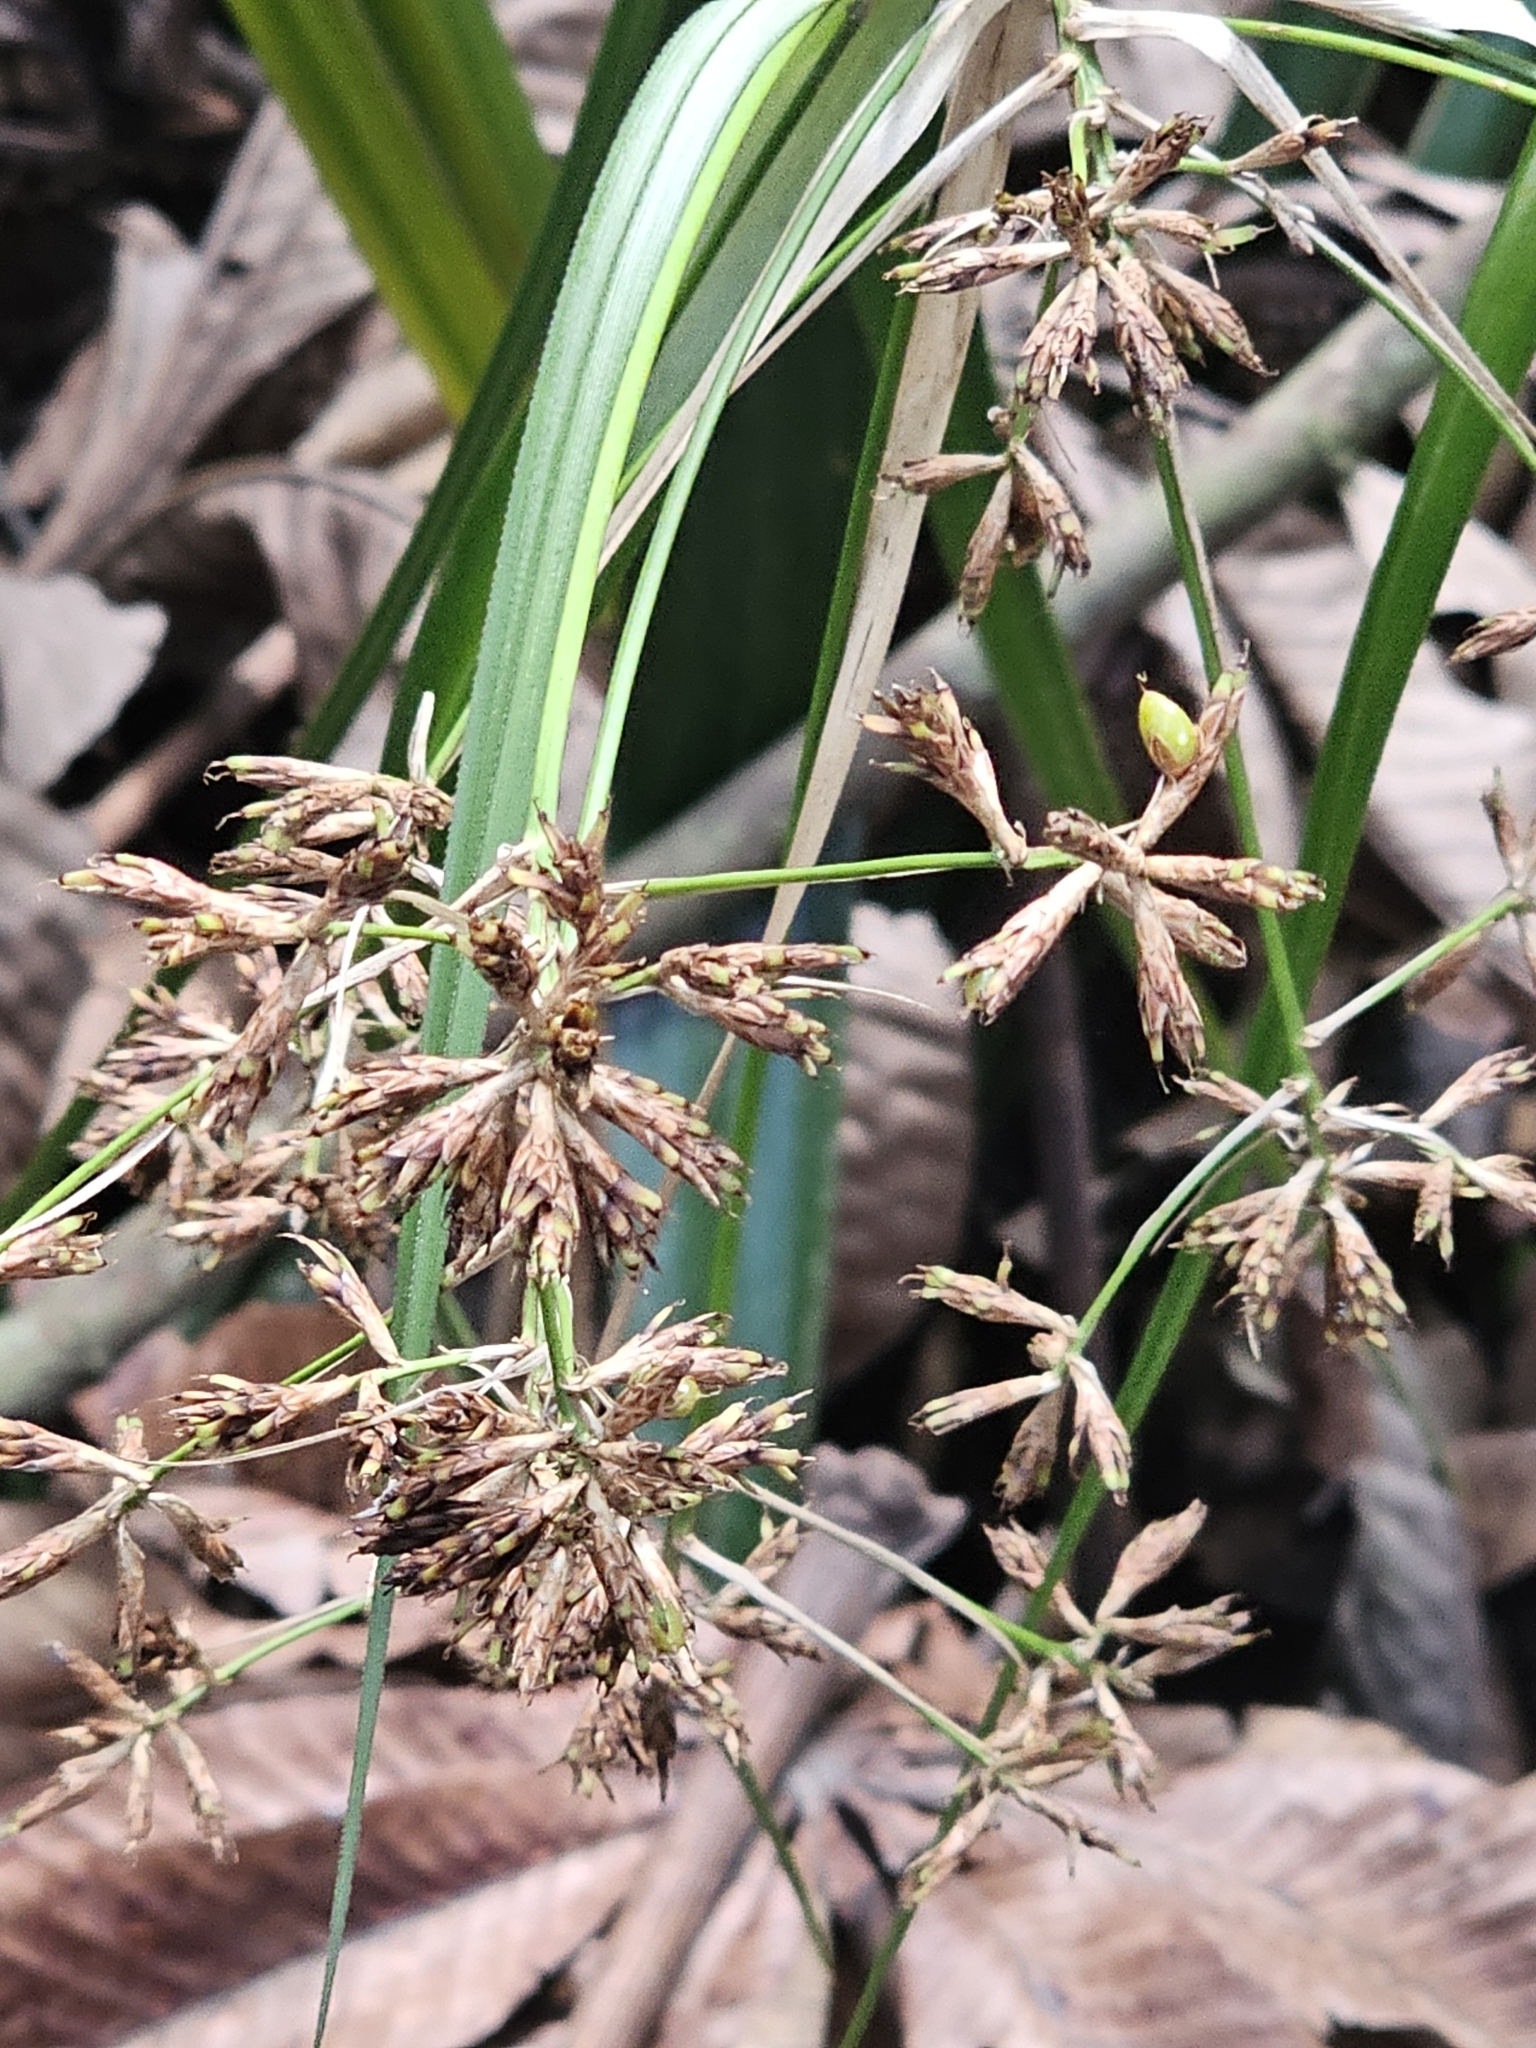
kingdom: Plantae
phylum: Tracheophyta
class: Liliopsida
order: Poales
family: Cyperaceae
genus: Diplasia
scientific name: Diplasia karatifolia
